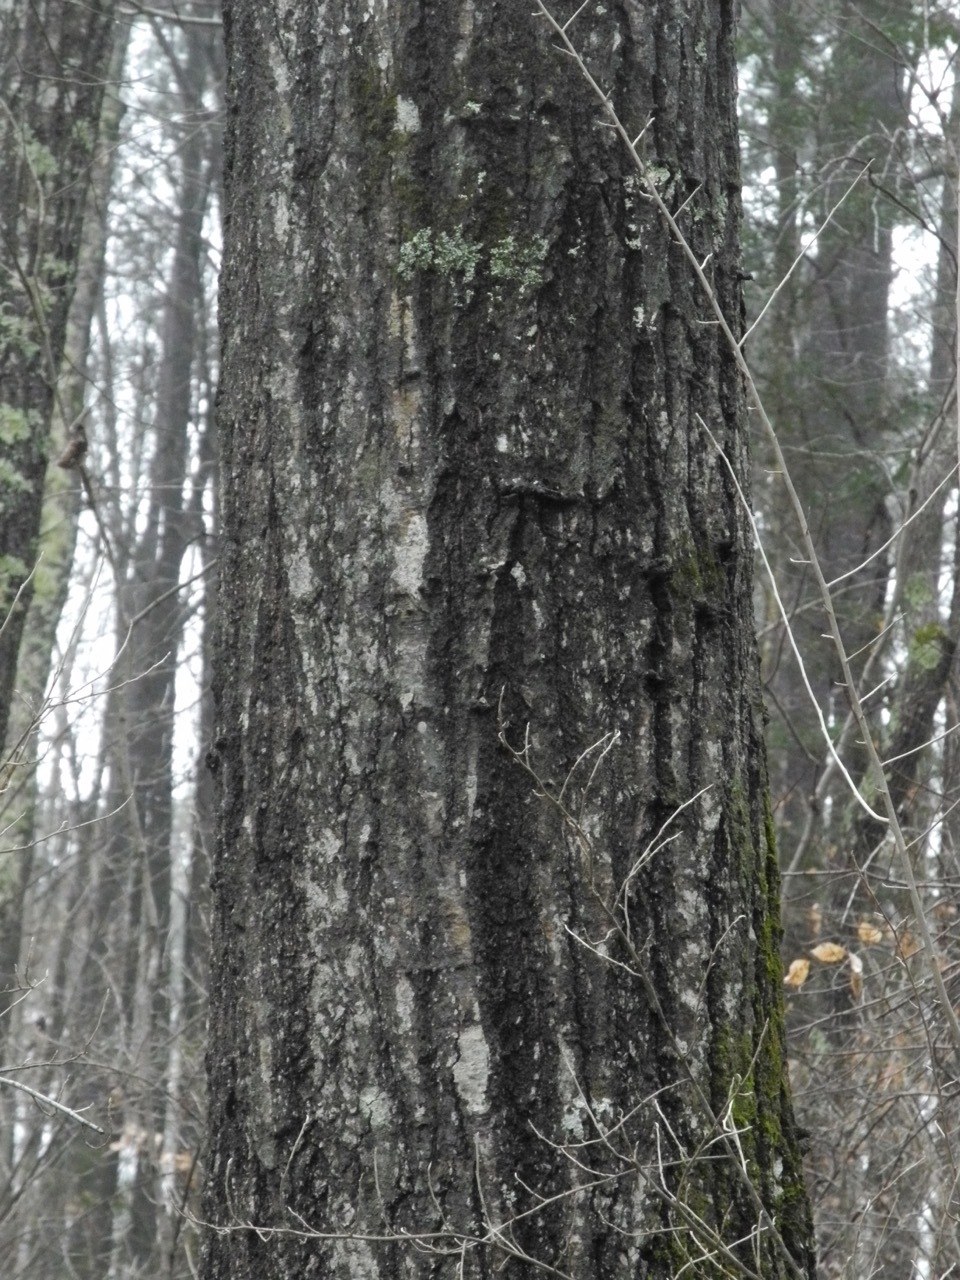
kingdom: Plantae
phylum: Tracheophyta
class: Magnoliopsida
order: Fagales
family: Fagaceae
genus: Quercus
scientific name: Quercus rubra
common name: Red oak
